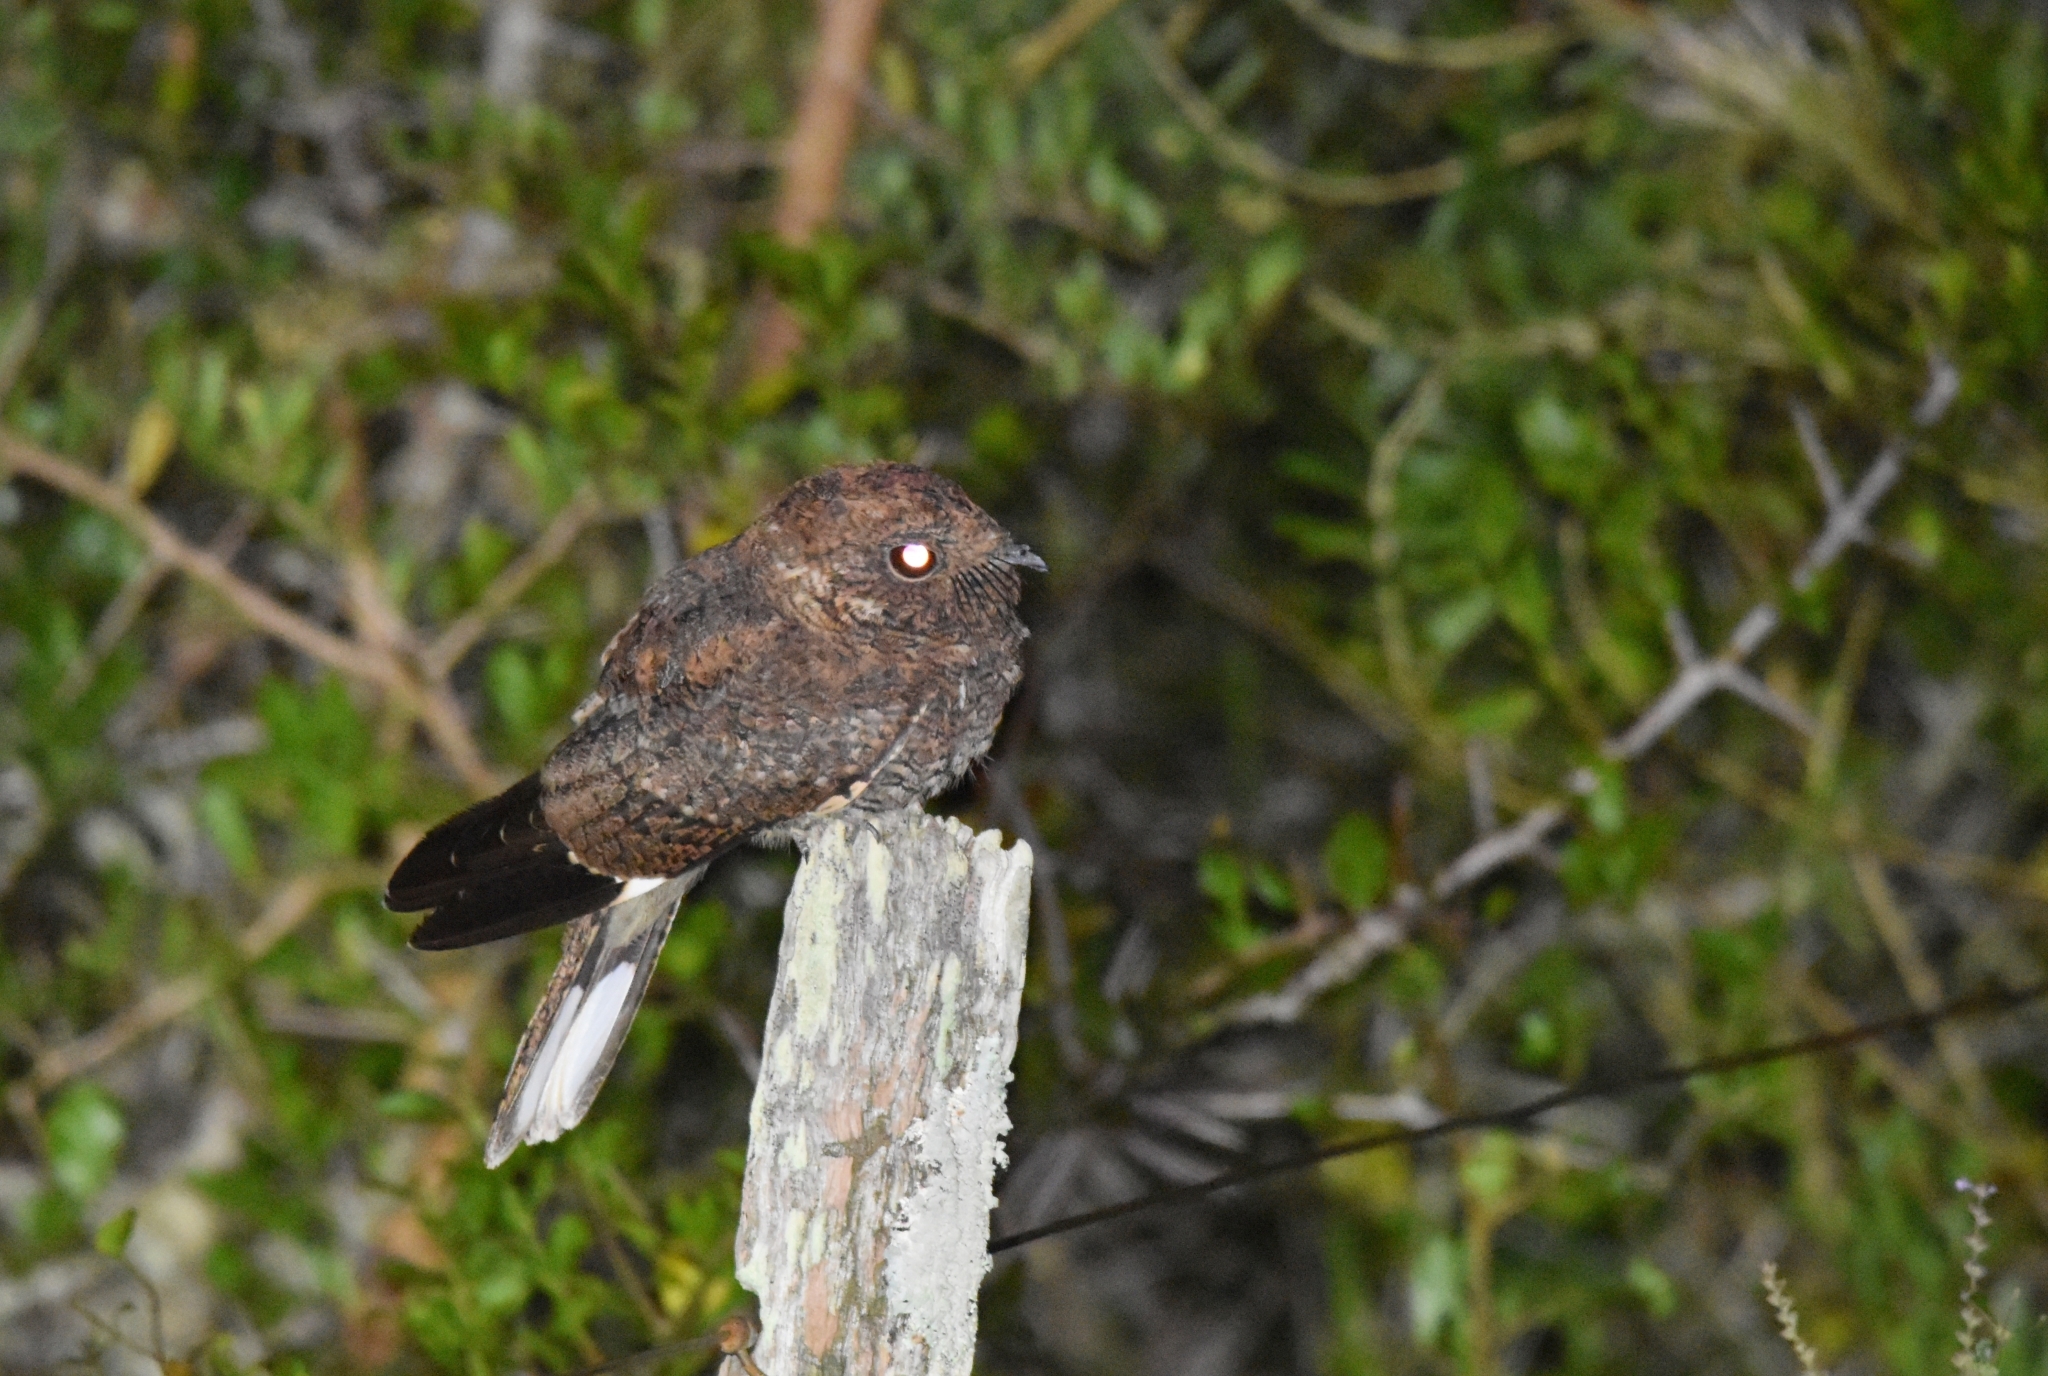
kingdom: Animalia
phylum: Chordata
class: Aves
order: Caprimulgiformes
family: Caprimulgidae
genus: Systellura
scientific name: Systellura longirostris
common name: Band-winged nightjar
